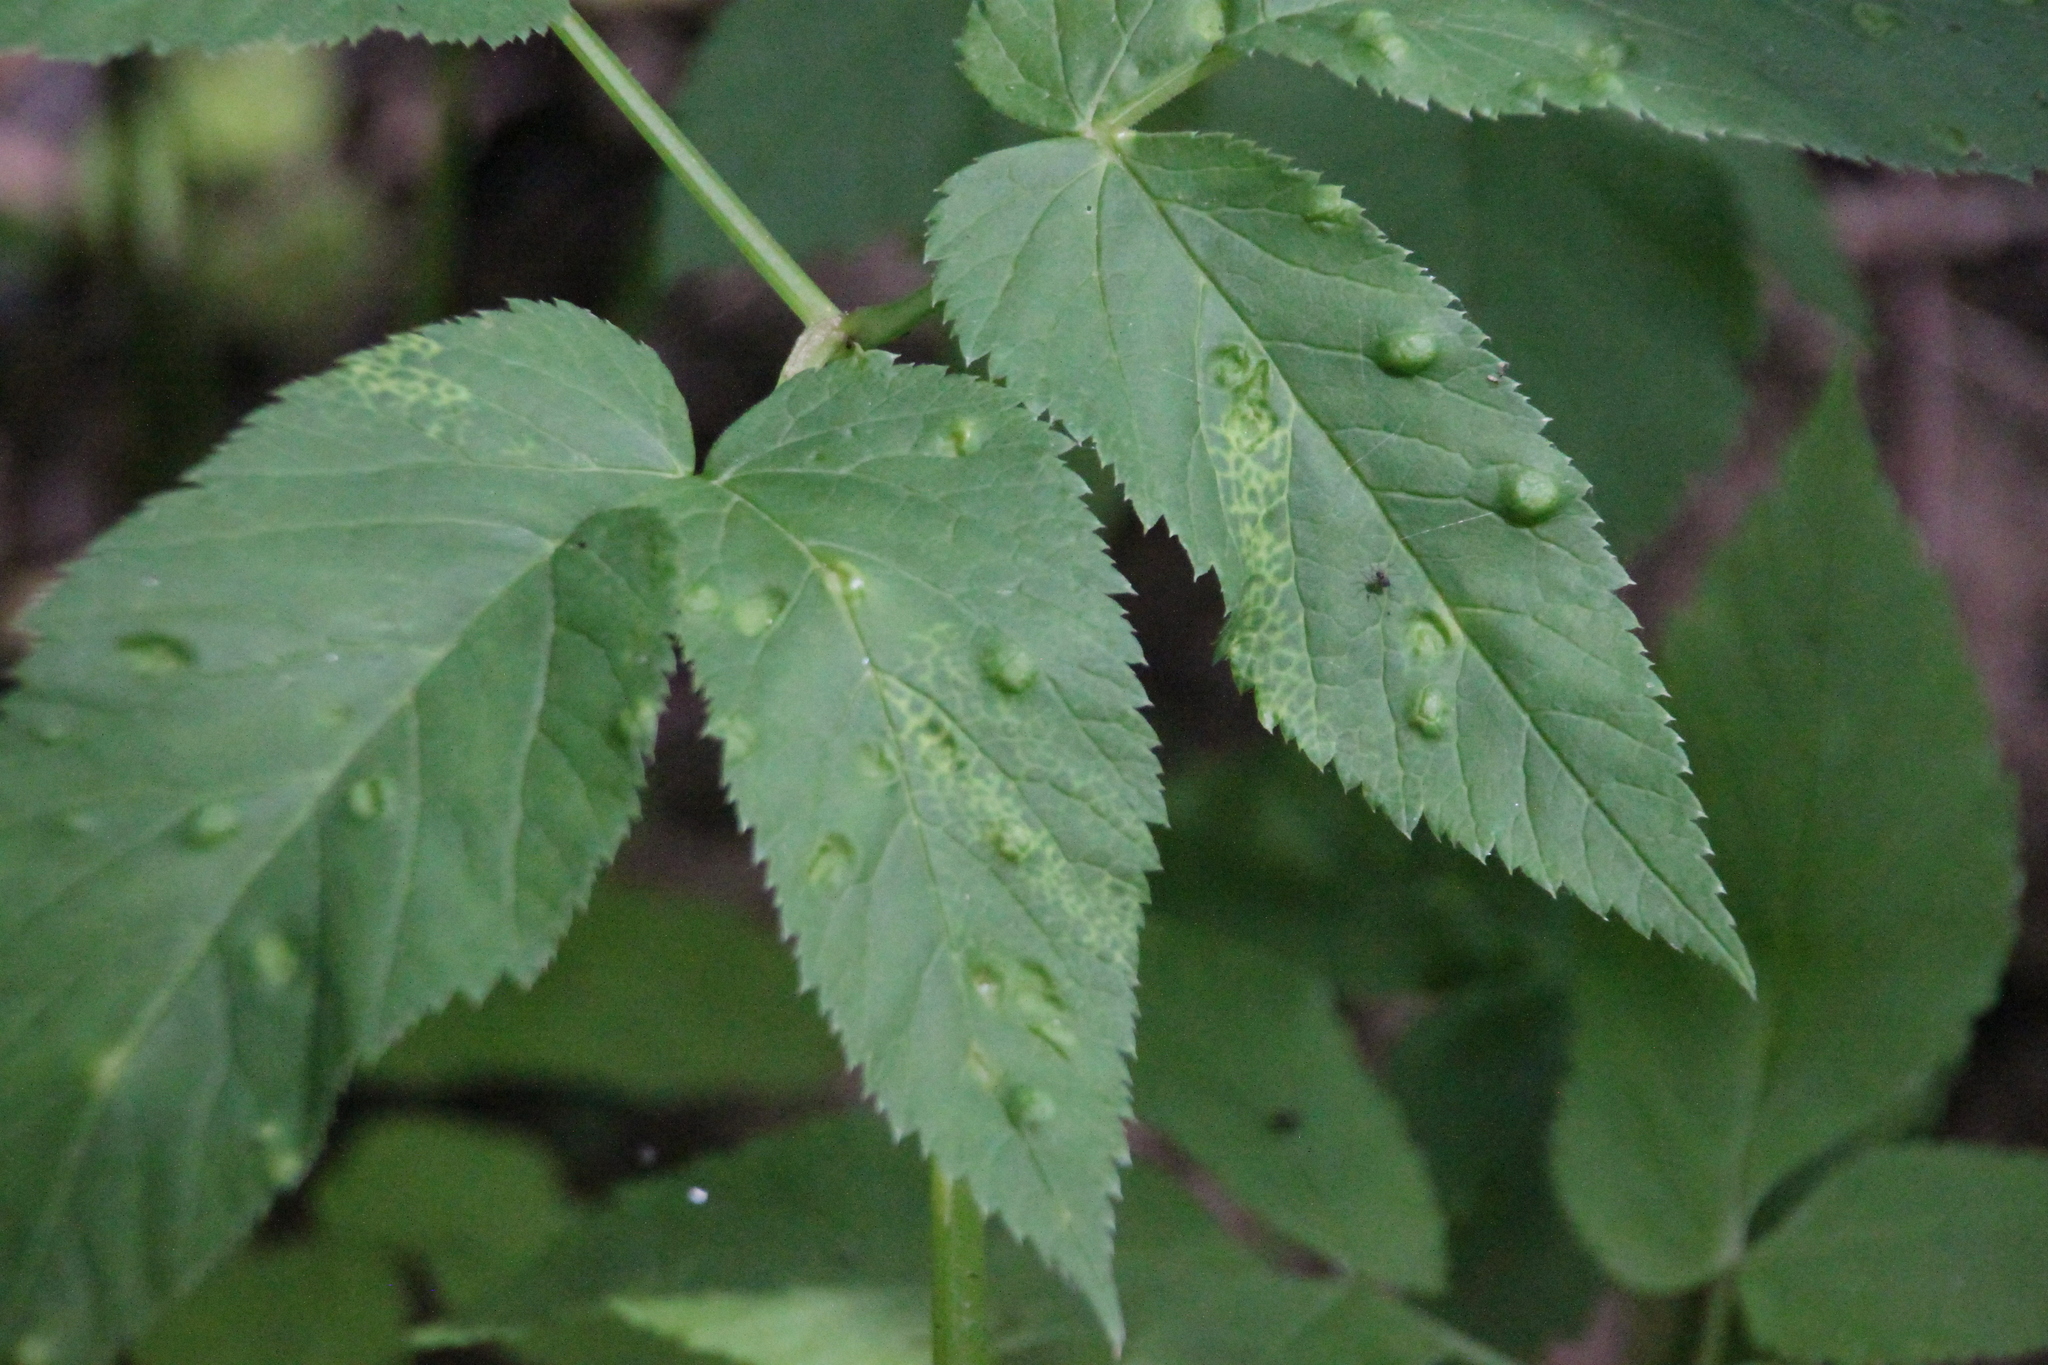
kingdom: Plantae
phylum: Tracheophyta
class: Magnoliopsida
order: Apiales
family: Apiaceae
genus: Aegopodium
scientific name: Aegopodium podagraria
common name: Ground-elder
